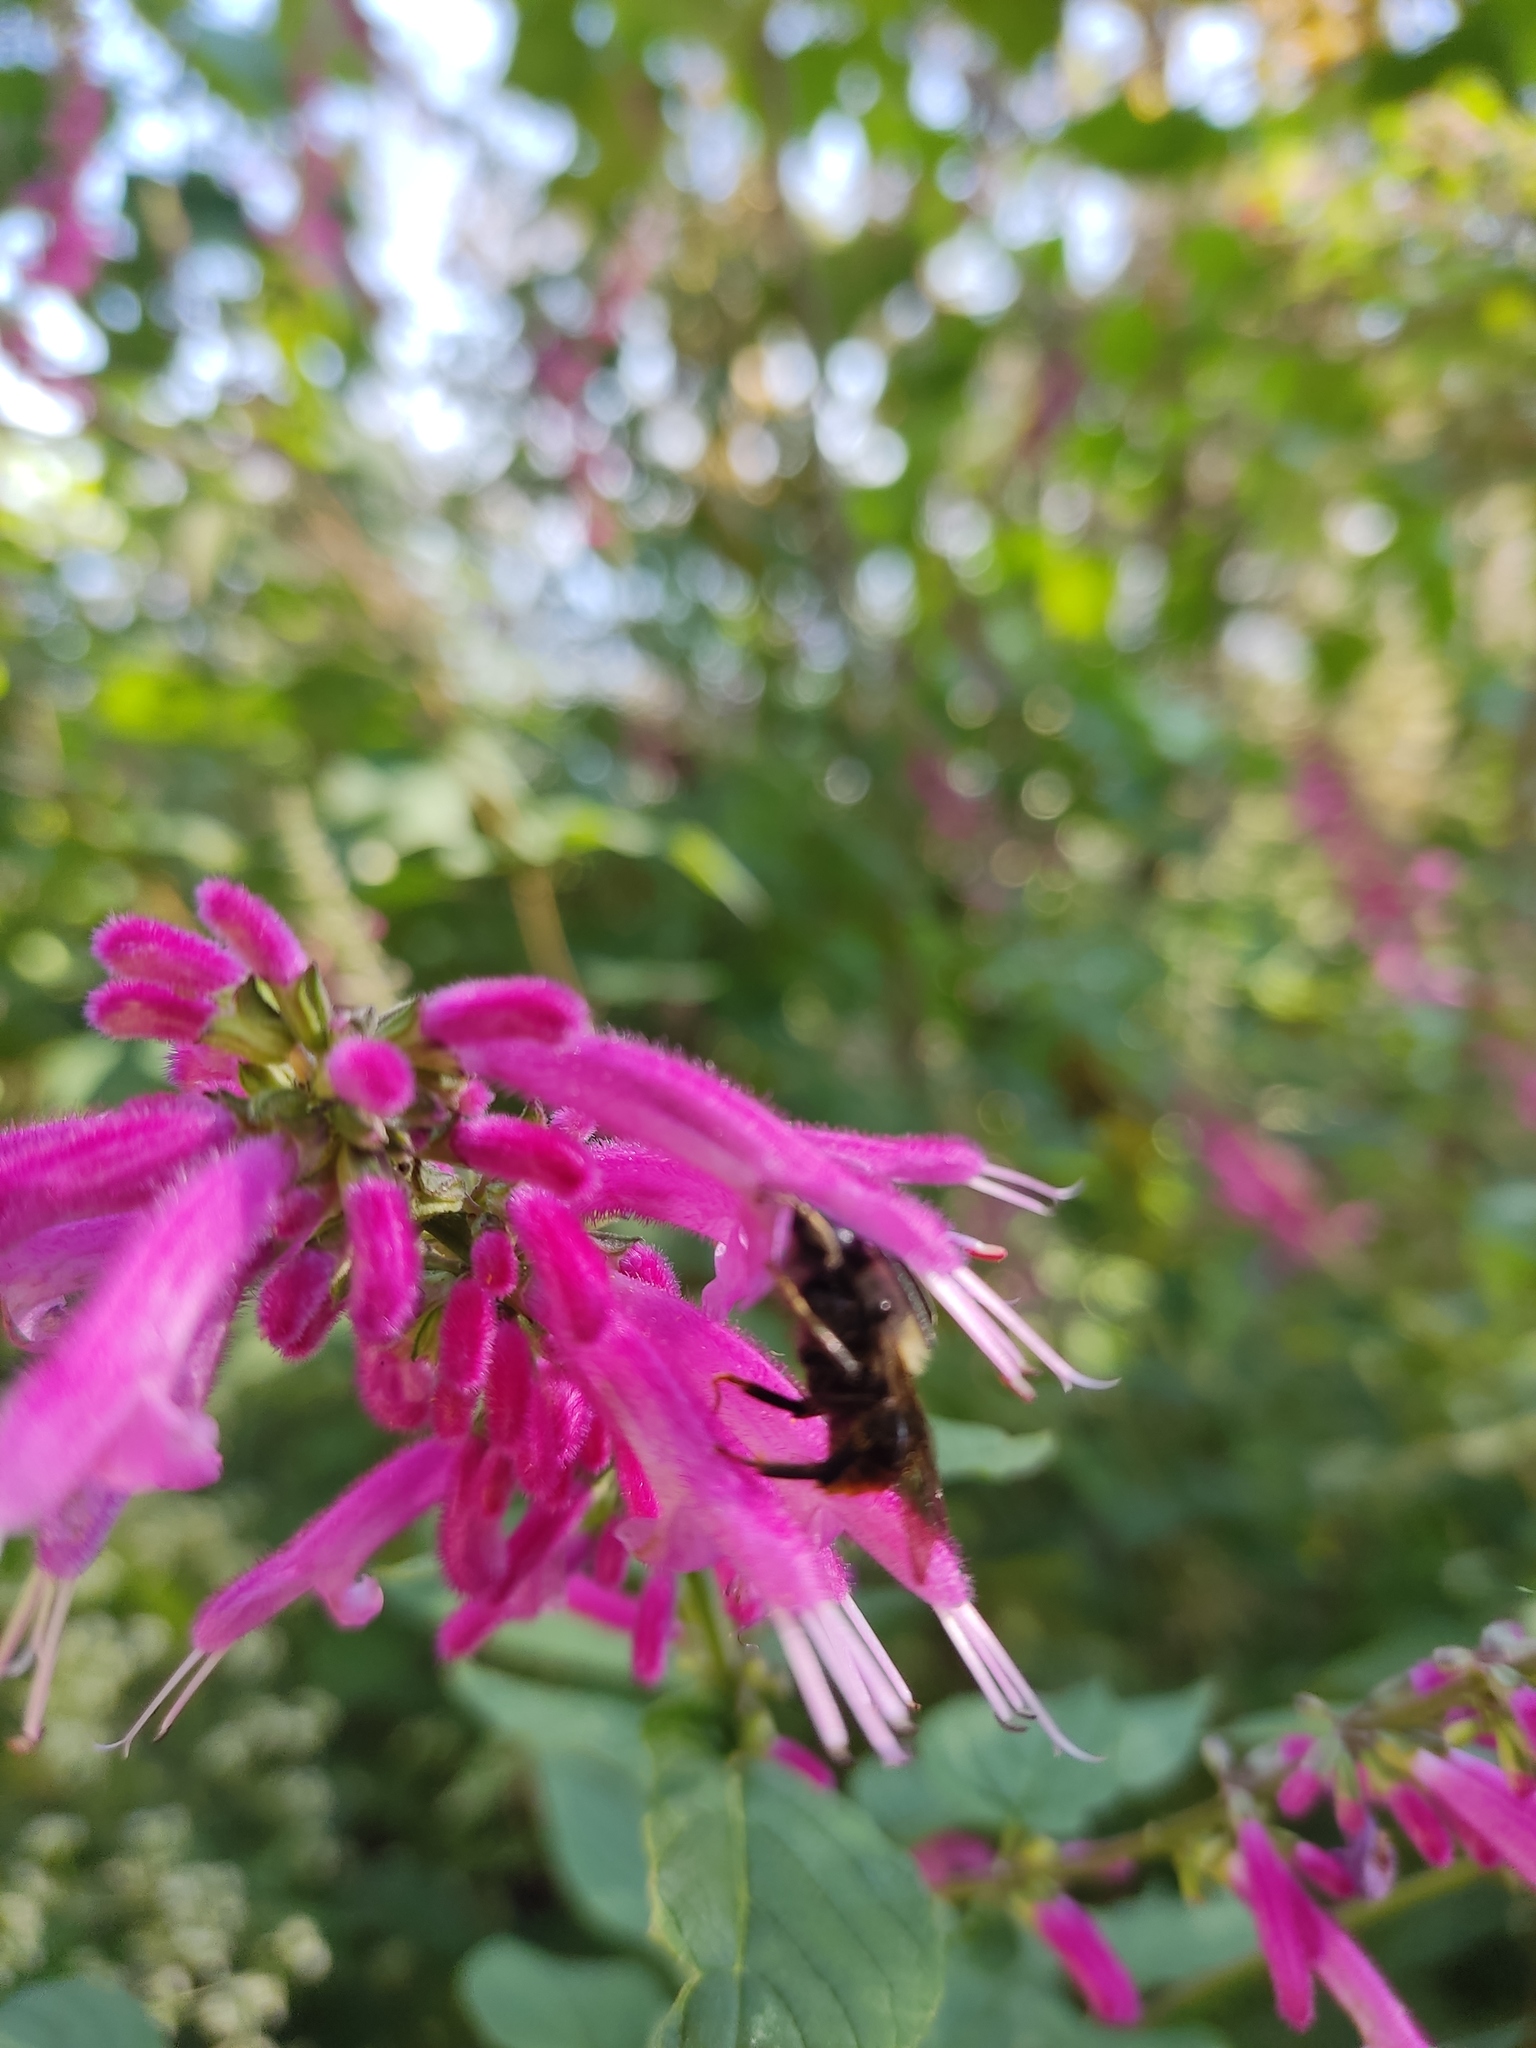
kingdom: Plantae
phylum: Tracheophyta
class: Magnoliopsida
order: Lamiales
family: Lamiaceae
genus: Salvia
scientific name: Salvia iodantha
